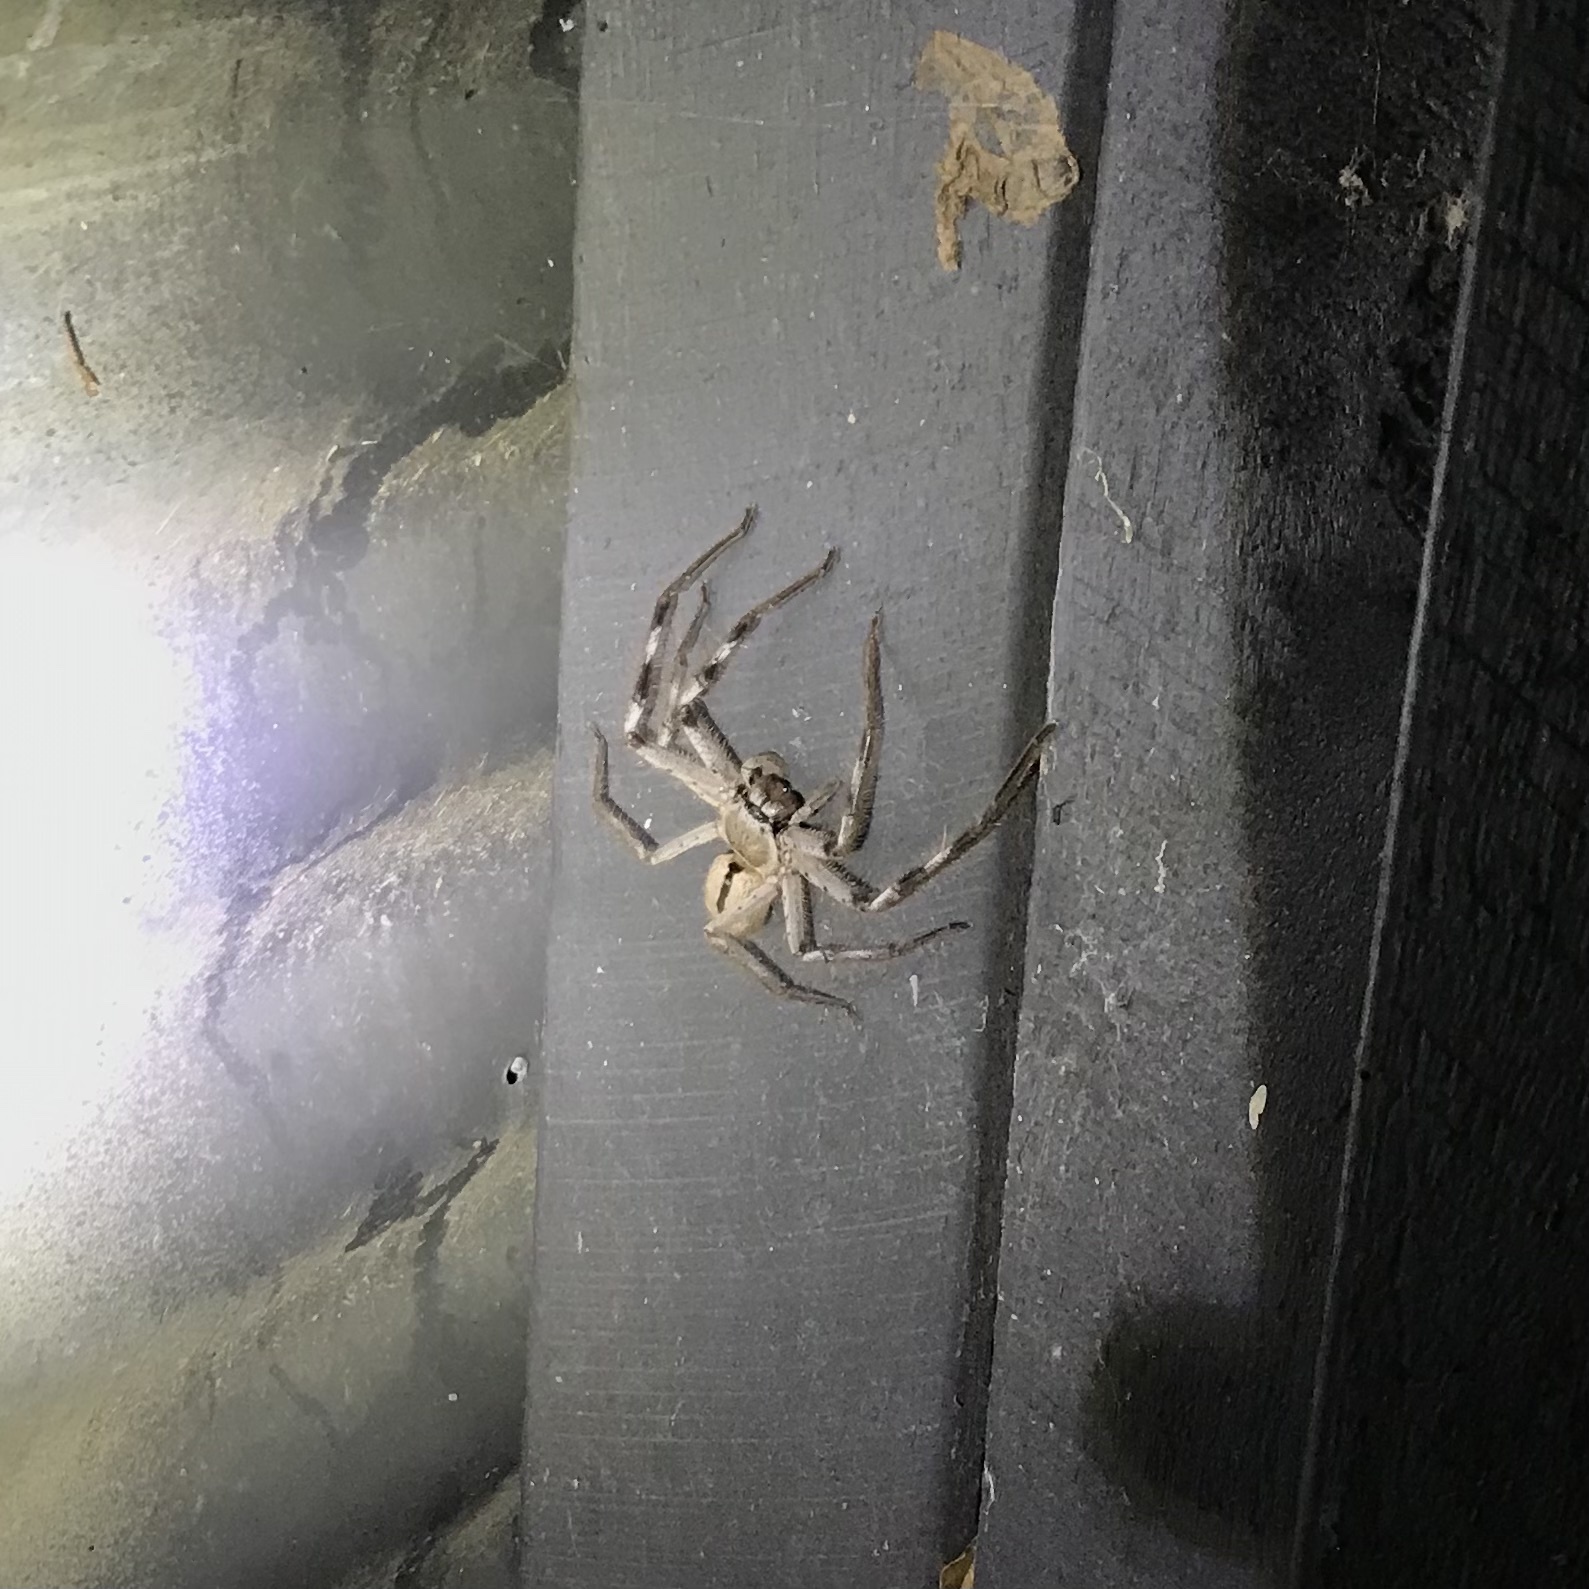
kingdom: Animalia
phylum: Arthropoda
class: Arachnida
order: Araneae
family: Sparassidae
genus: Holconia
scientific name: Holconia immanis
